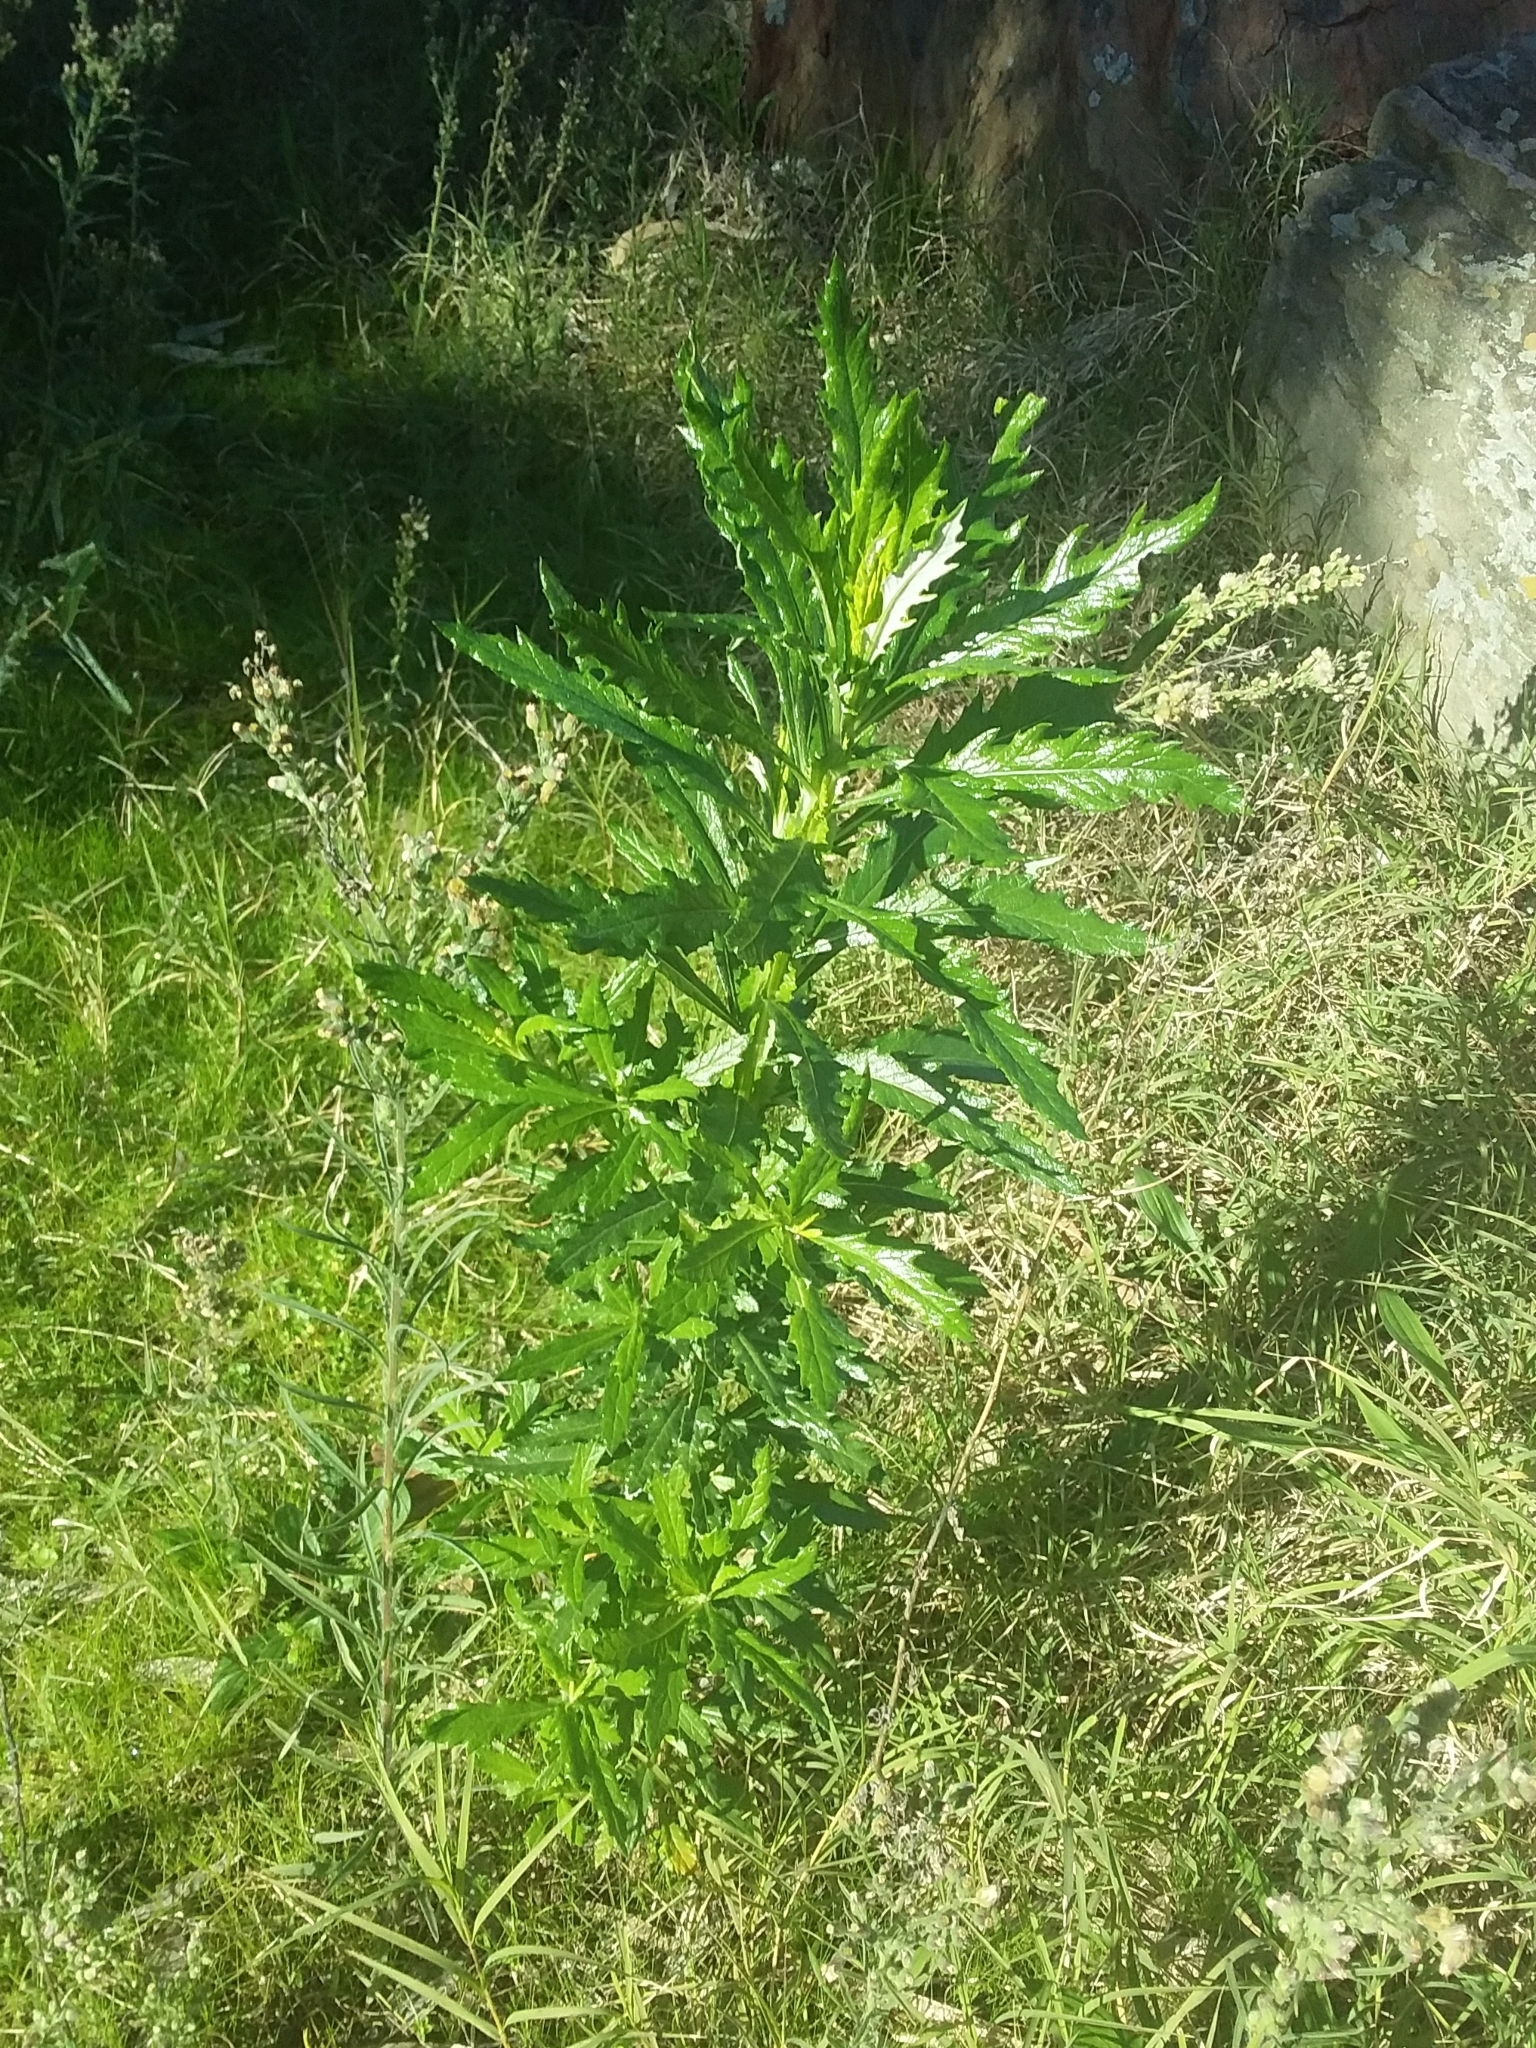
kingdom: Plantae
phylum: Tracheophyta
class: Magnoliopsida
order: Asterales
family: Asteraceae
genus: Senecio
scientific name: Senecio pterophorus
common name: Shoddy ragwort
